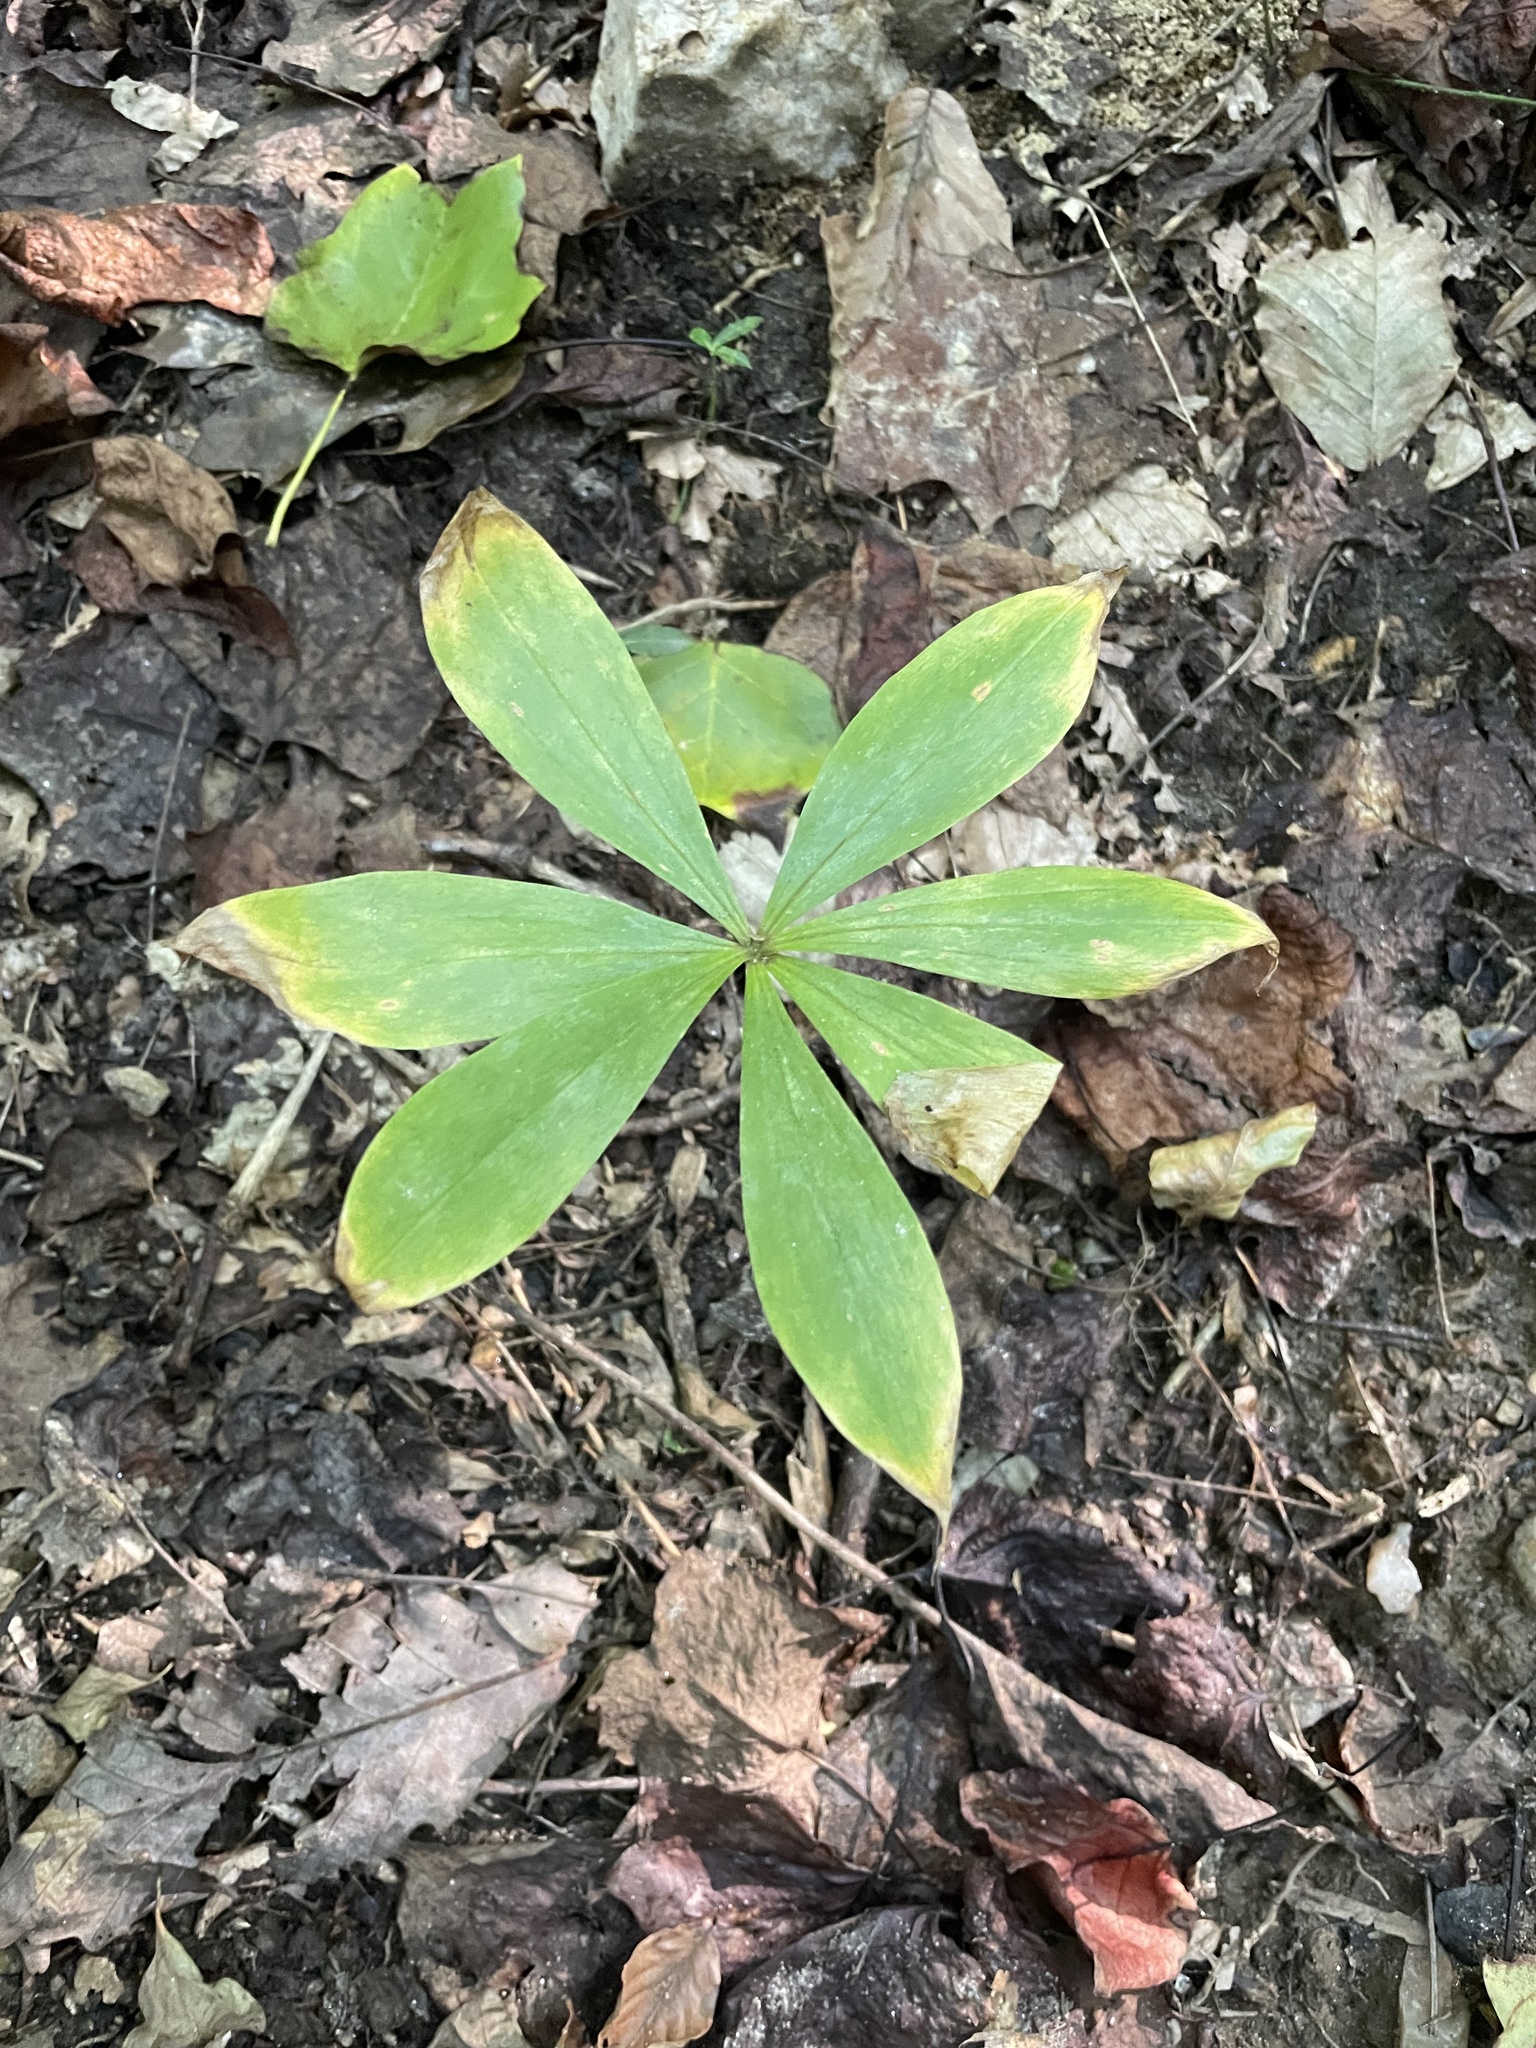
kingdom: Plantae
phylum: Tracheophyta
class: Liliopsida
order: Liliales
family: Liliaceae
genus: Medeola
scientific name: Medeola virginiana
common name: Indian cucumber-root
